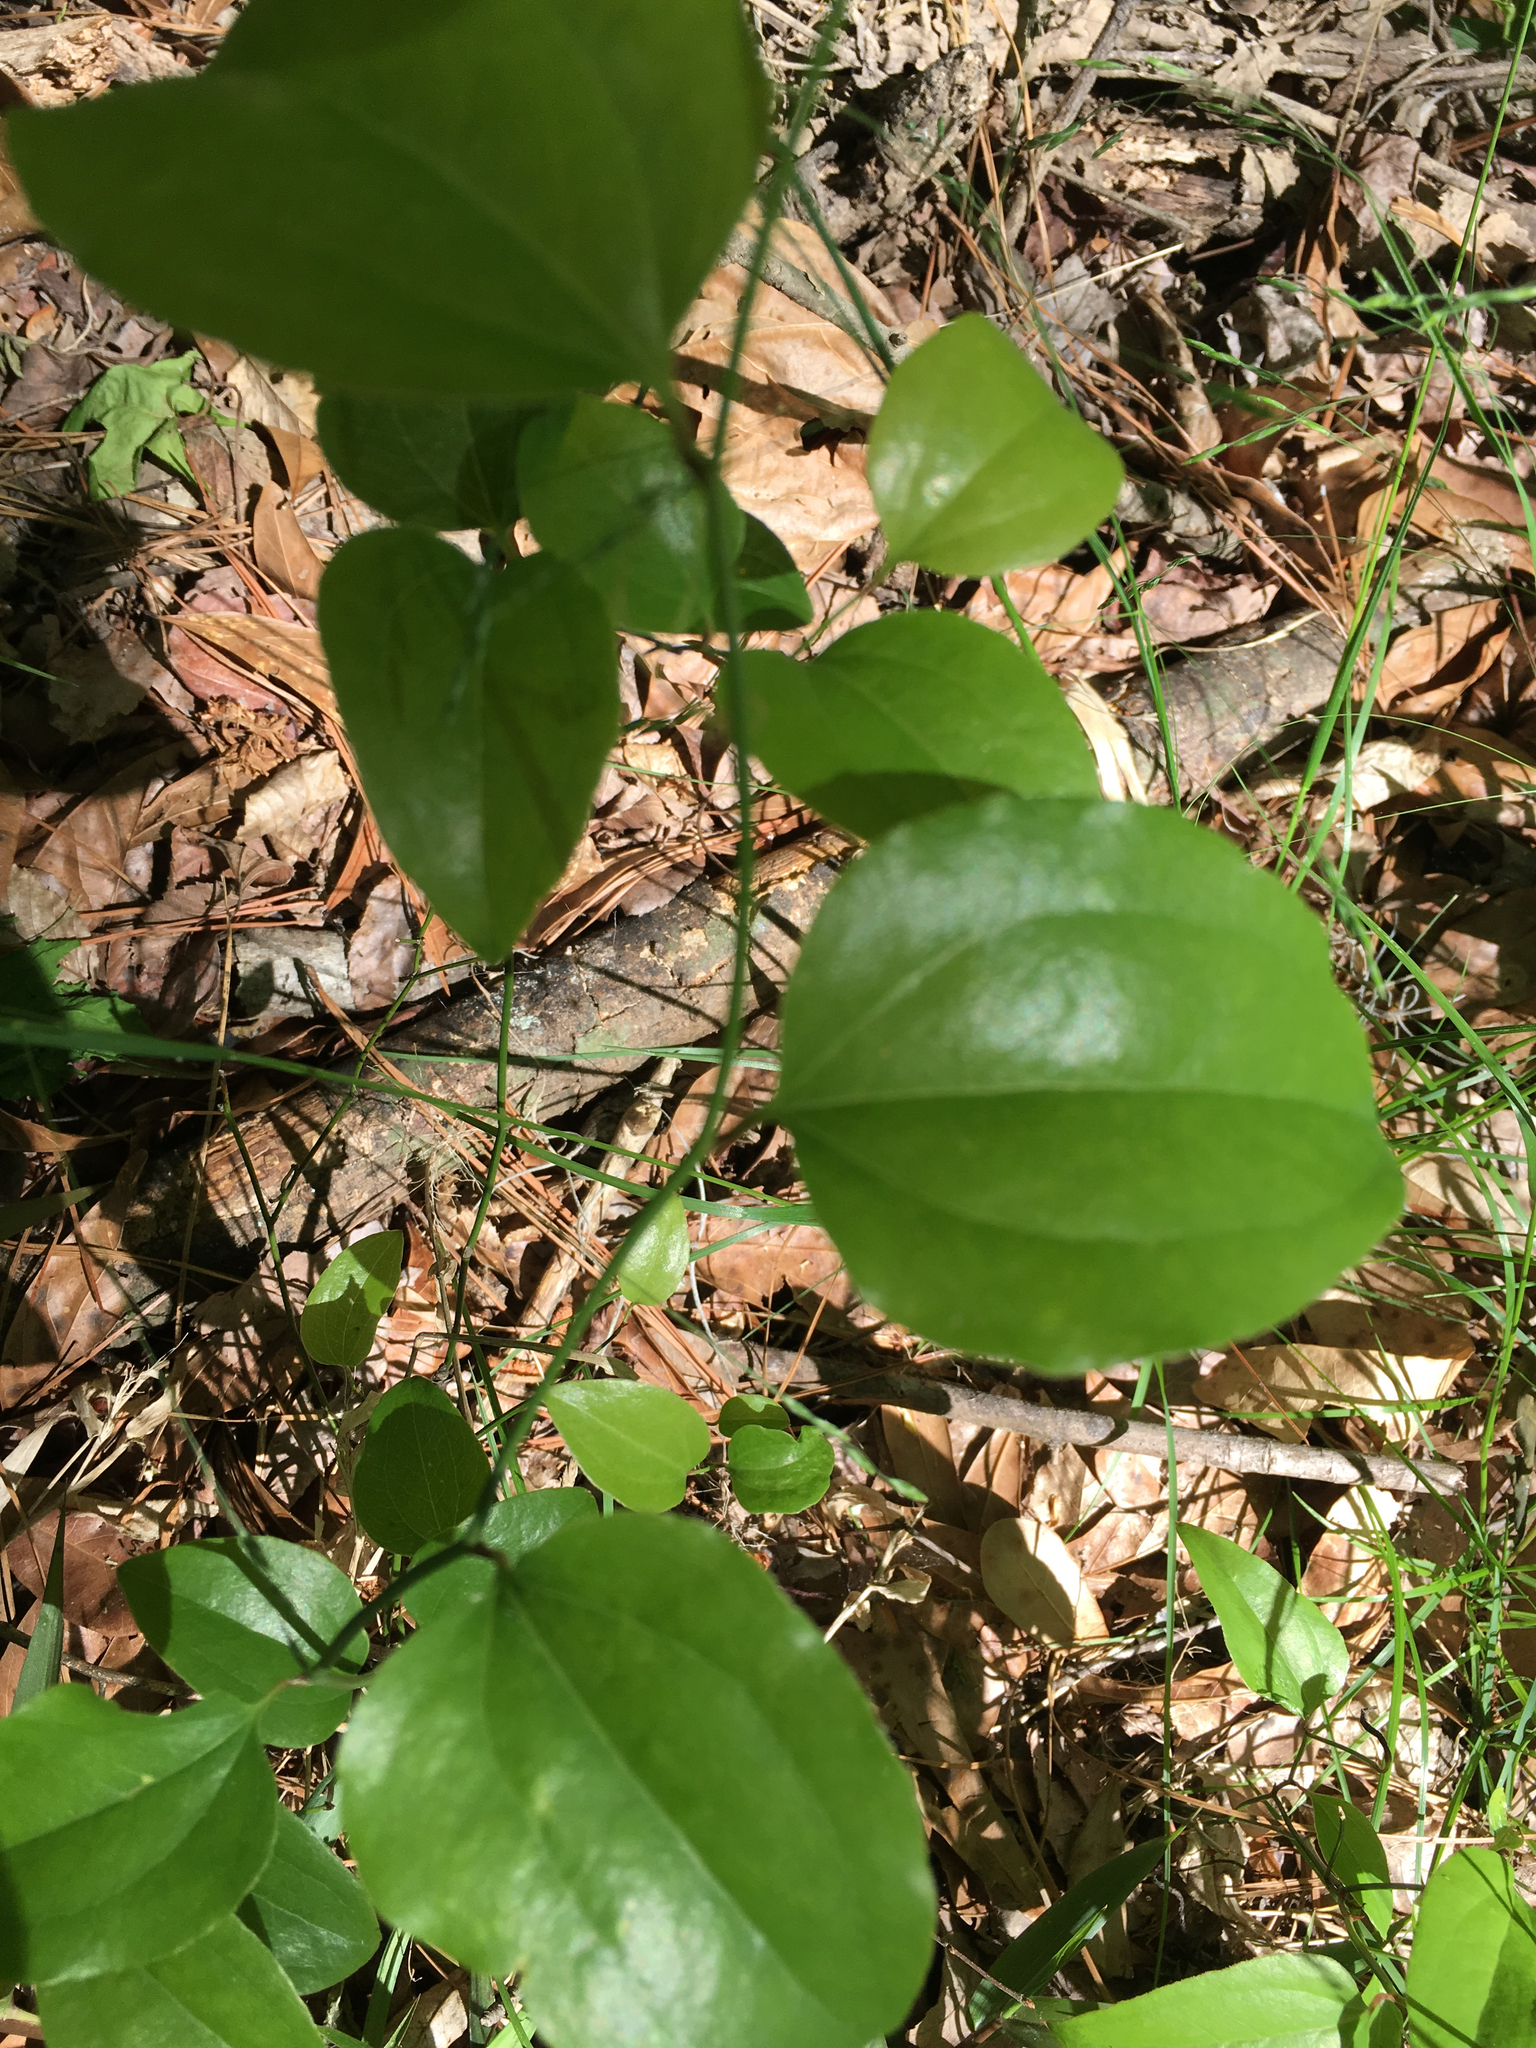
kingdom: Plantae
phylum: Tracheophyta
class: Liliopsida
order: Liliales
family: Smilacaceae
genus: Smilax
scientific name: Smilax rotundifolia
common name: Bullbriar
